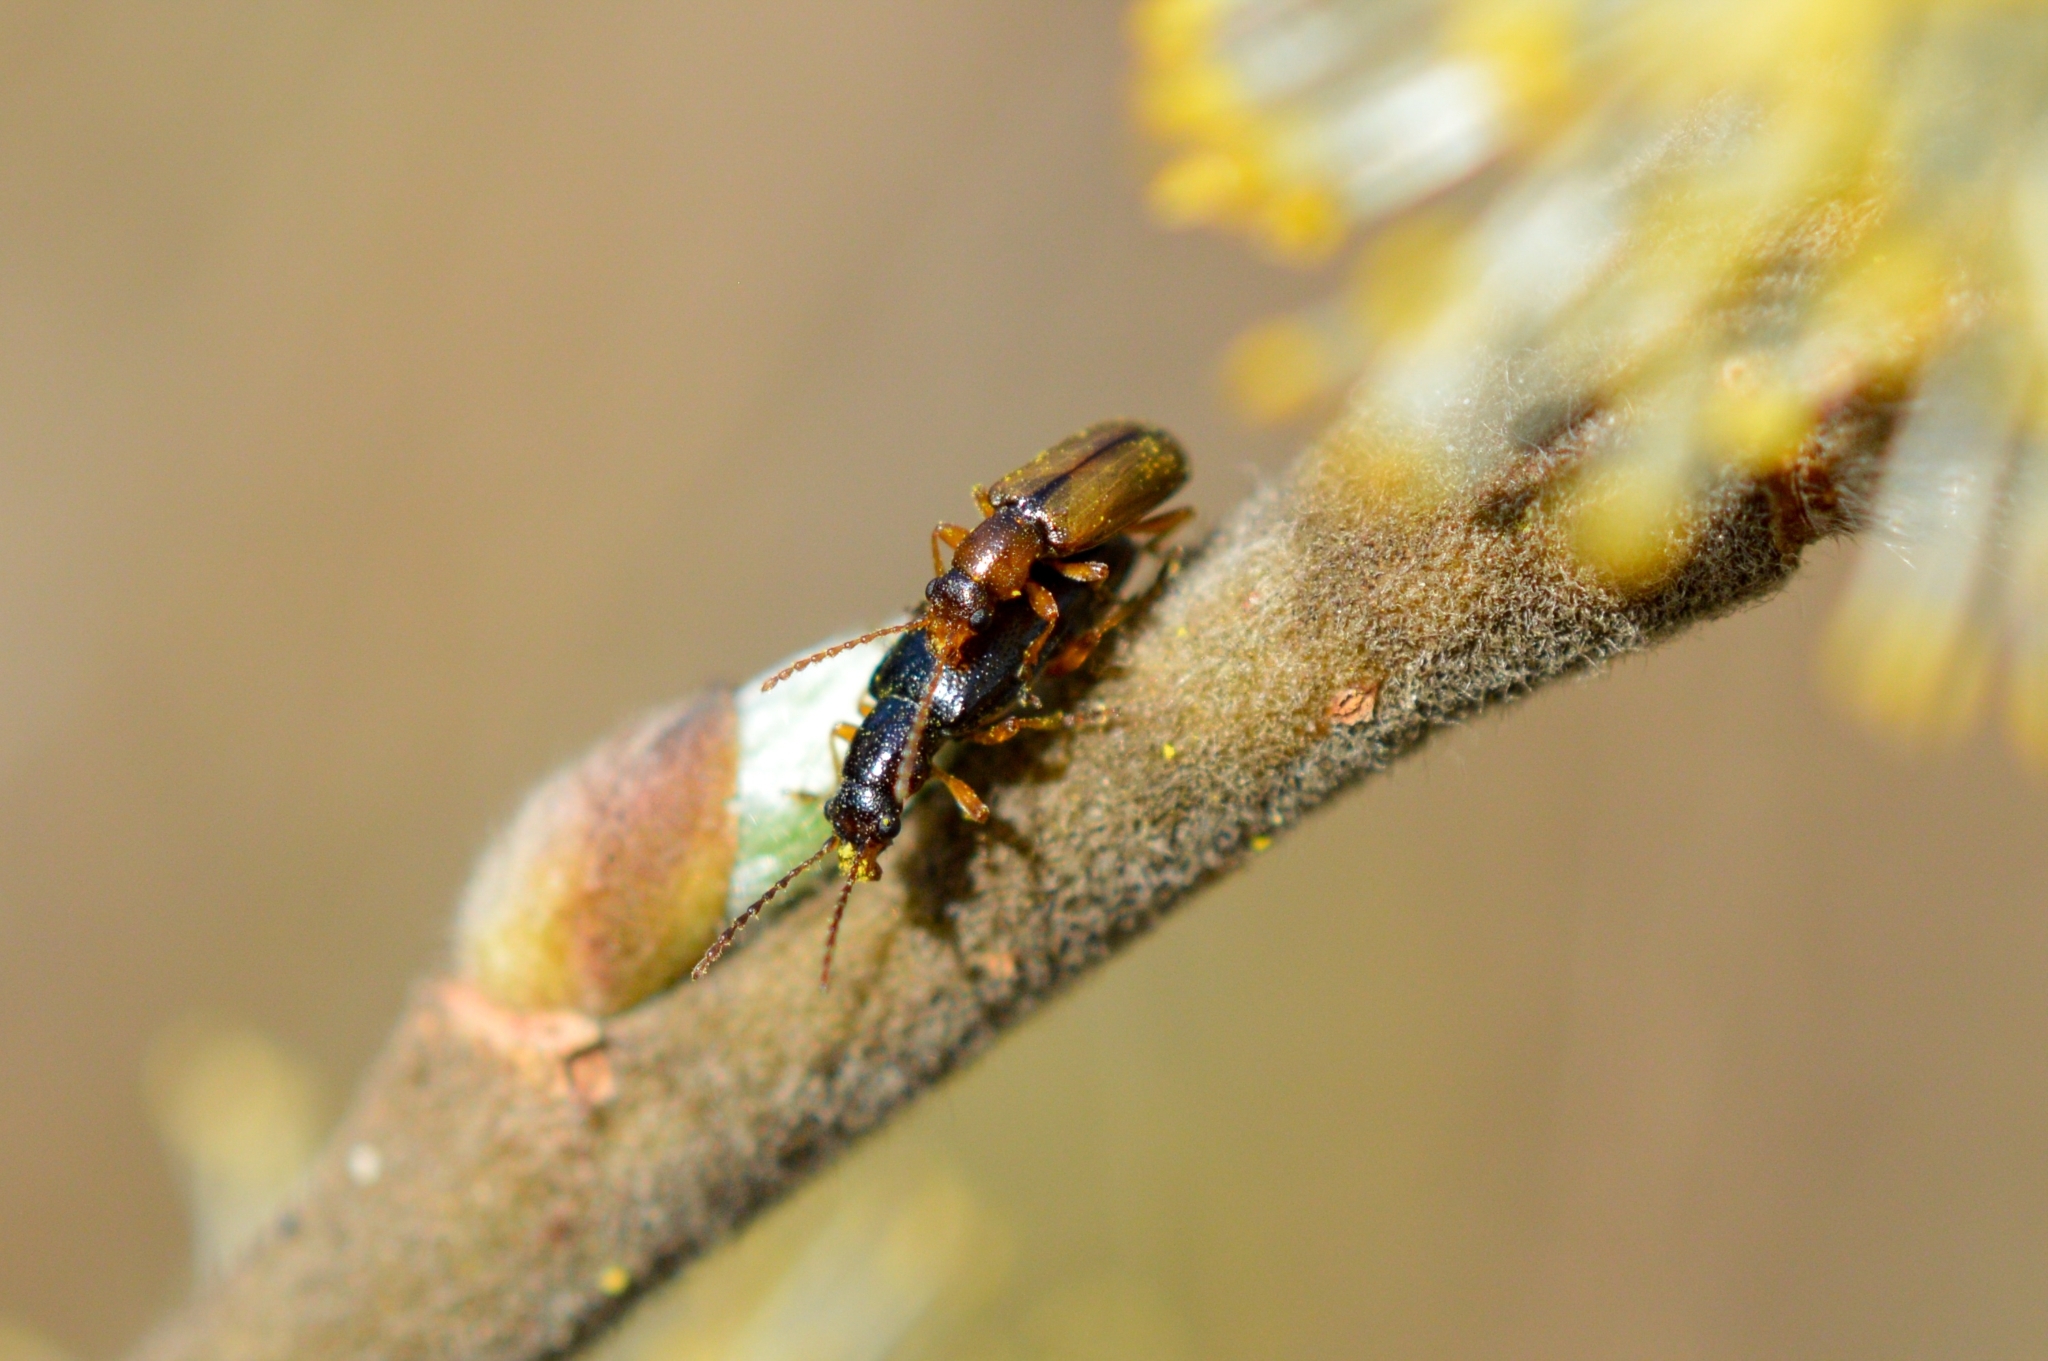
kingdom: Animalia
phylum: Arthropoda
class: Insecta
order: Coleoptera
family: Orsodacnidae
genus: Orsodacne
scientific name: Orsodacne cerasi
